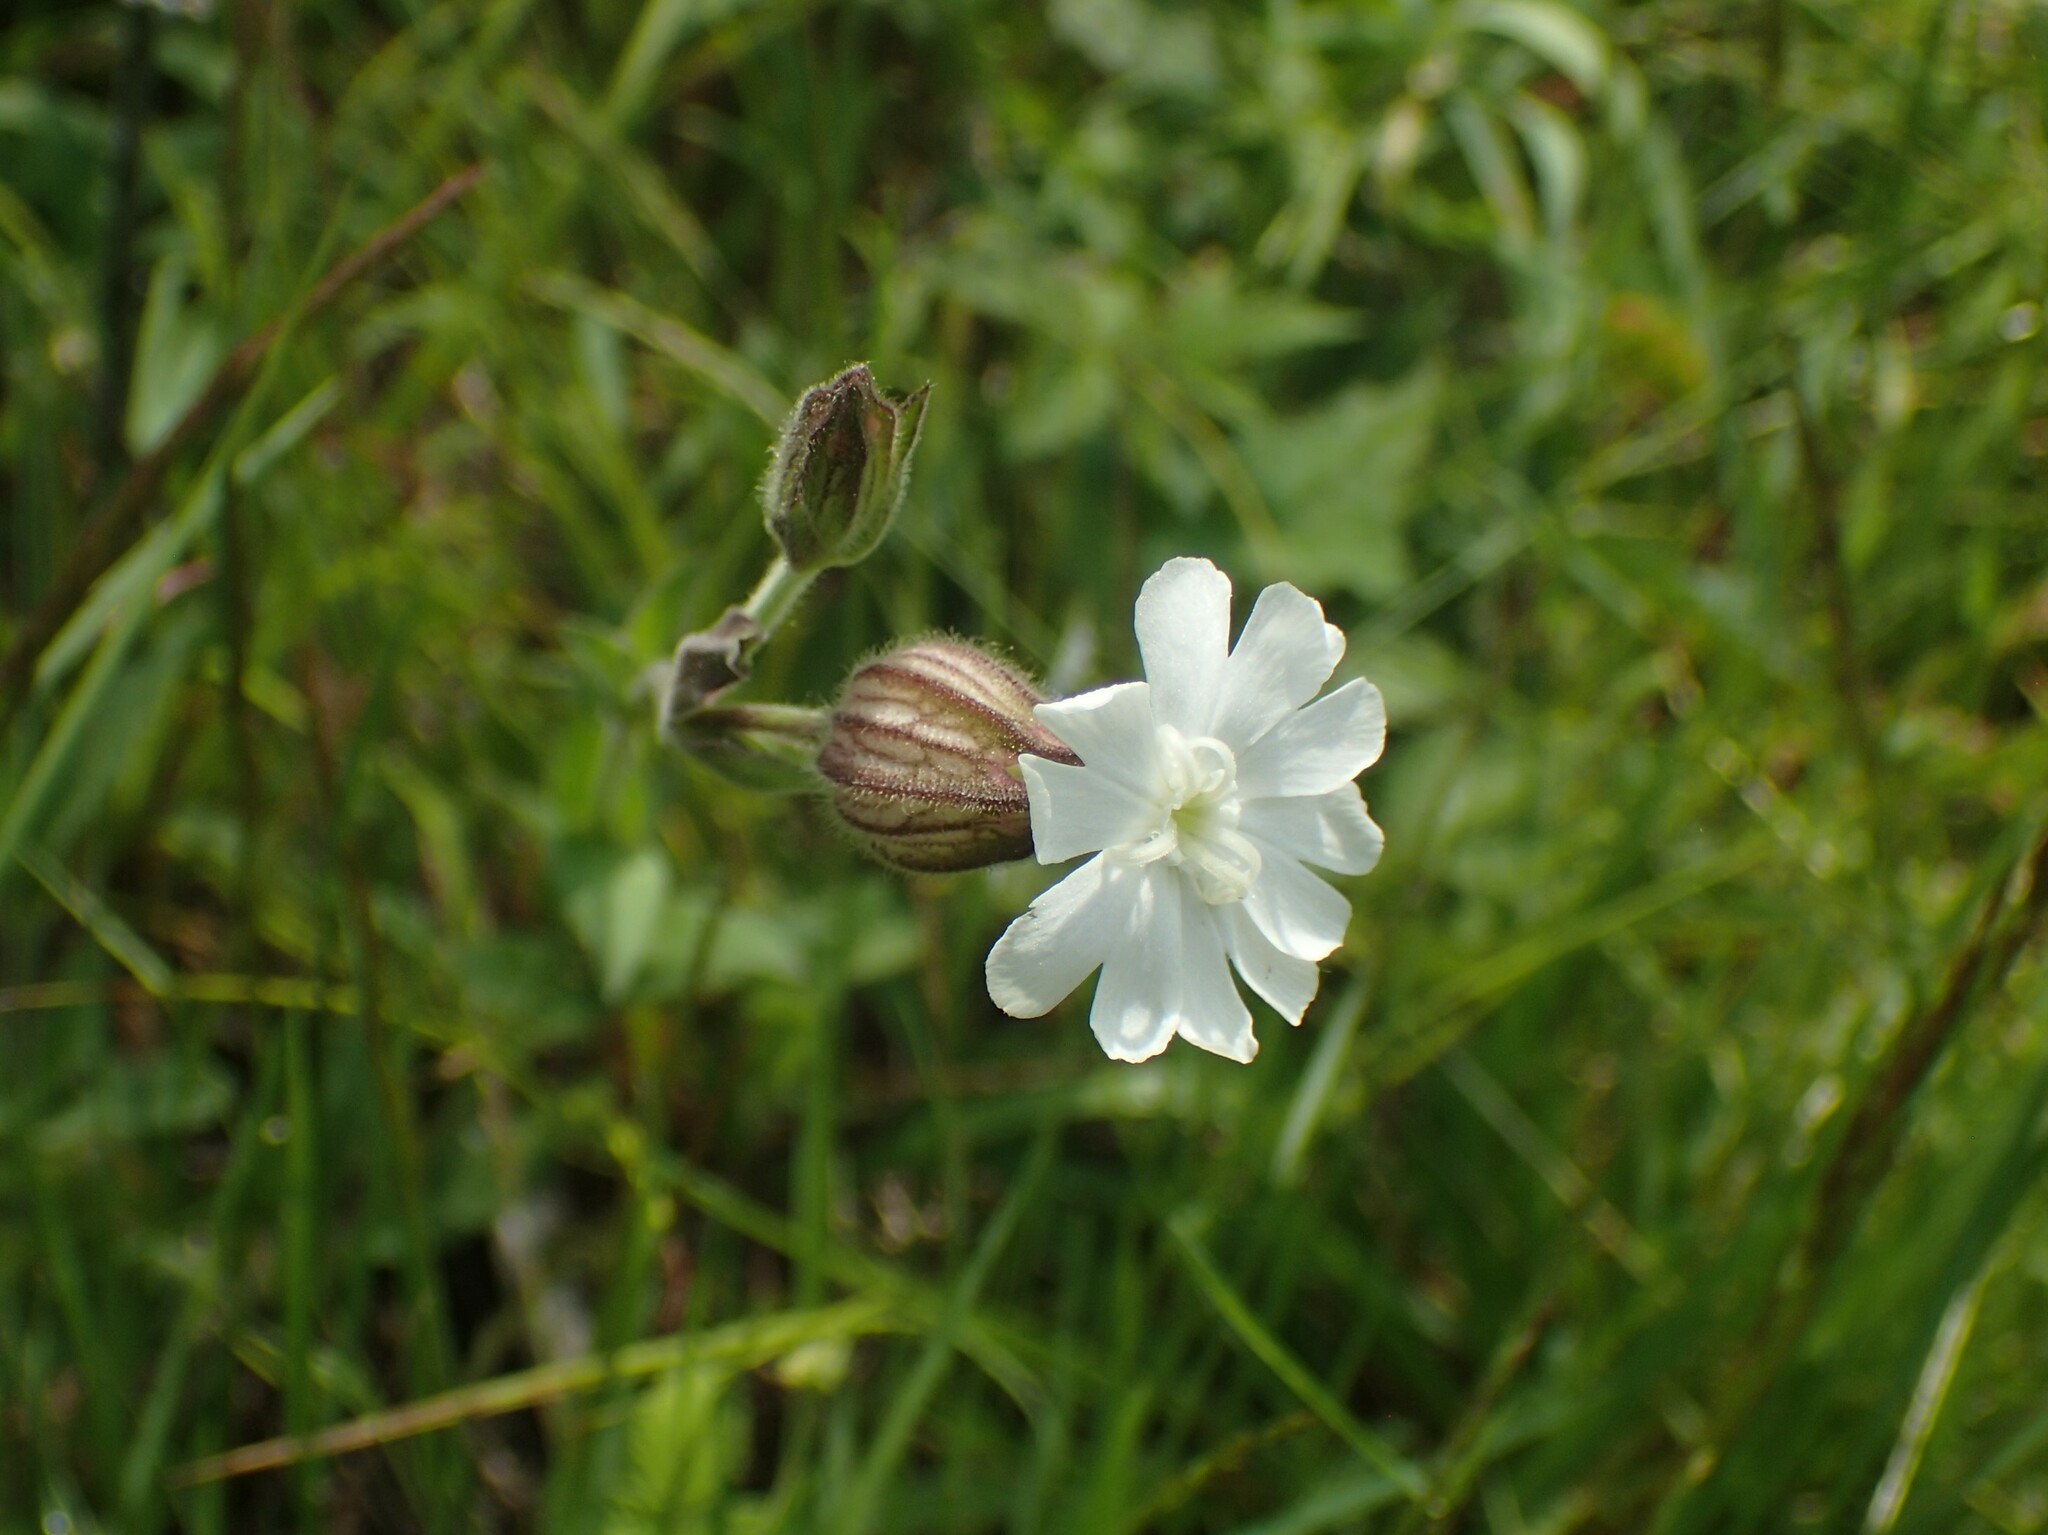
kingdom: Plantae
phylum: Tracheophyta
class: Magnoliopsida
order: Caryophyllales
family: Caryophyllaceae
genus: Silene
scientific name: Silene latifolia
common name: White campion
